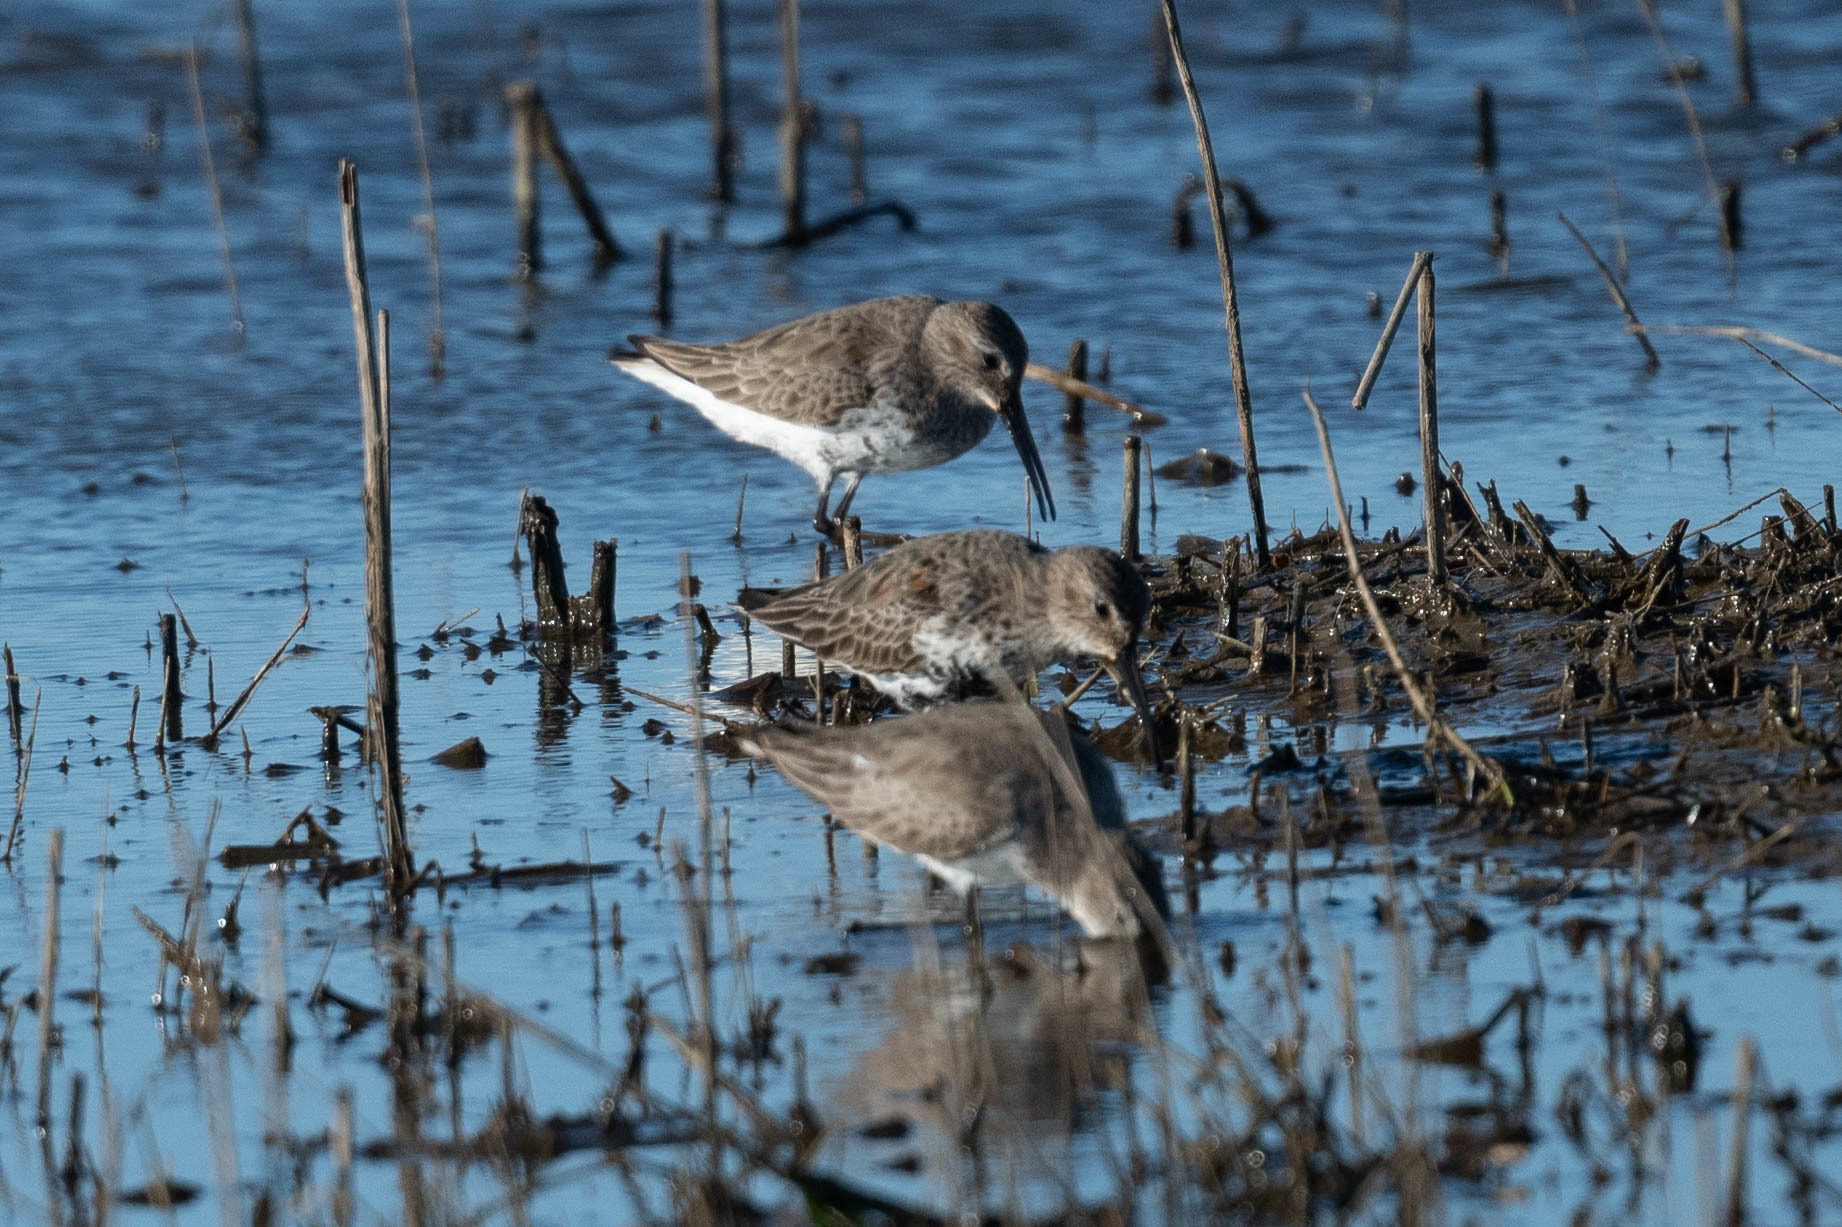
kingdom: Animalia
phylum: Chordata
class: Aves
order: Charadriiformes
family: Scolopacidae
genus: Calidris
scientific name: Calidris alpina
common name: Dunlin
